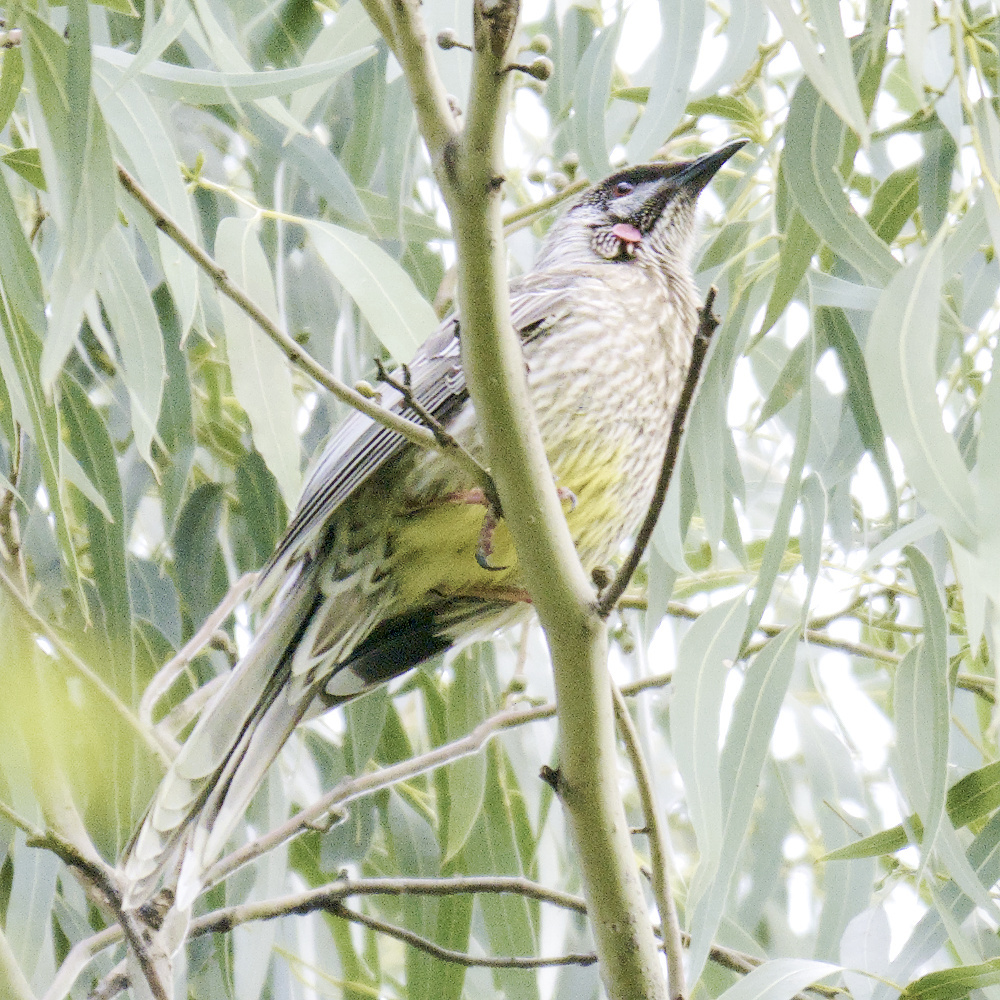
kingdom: Animalia
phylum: Chordata
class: Aves
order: Passeriformes
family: Meliphagidae
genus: Anthochaera
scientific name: Anthochaera carunculata
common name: Red wattlebird
